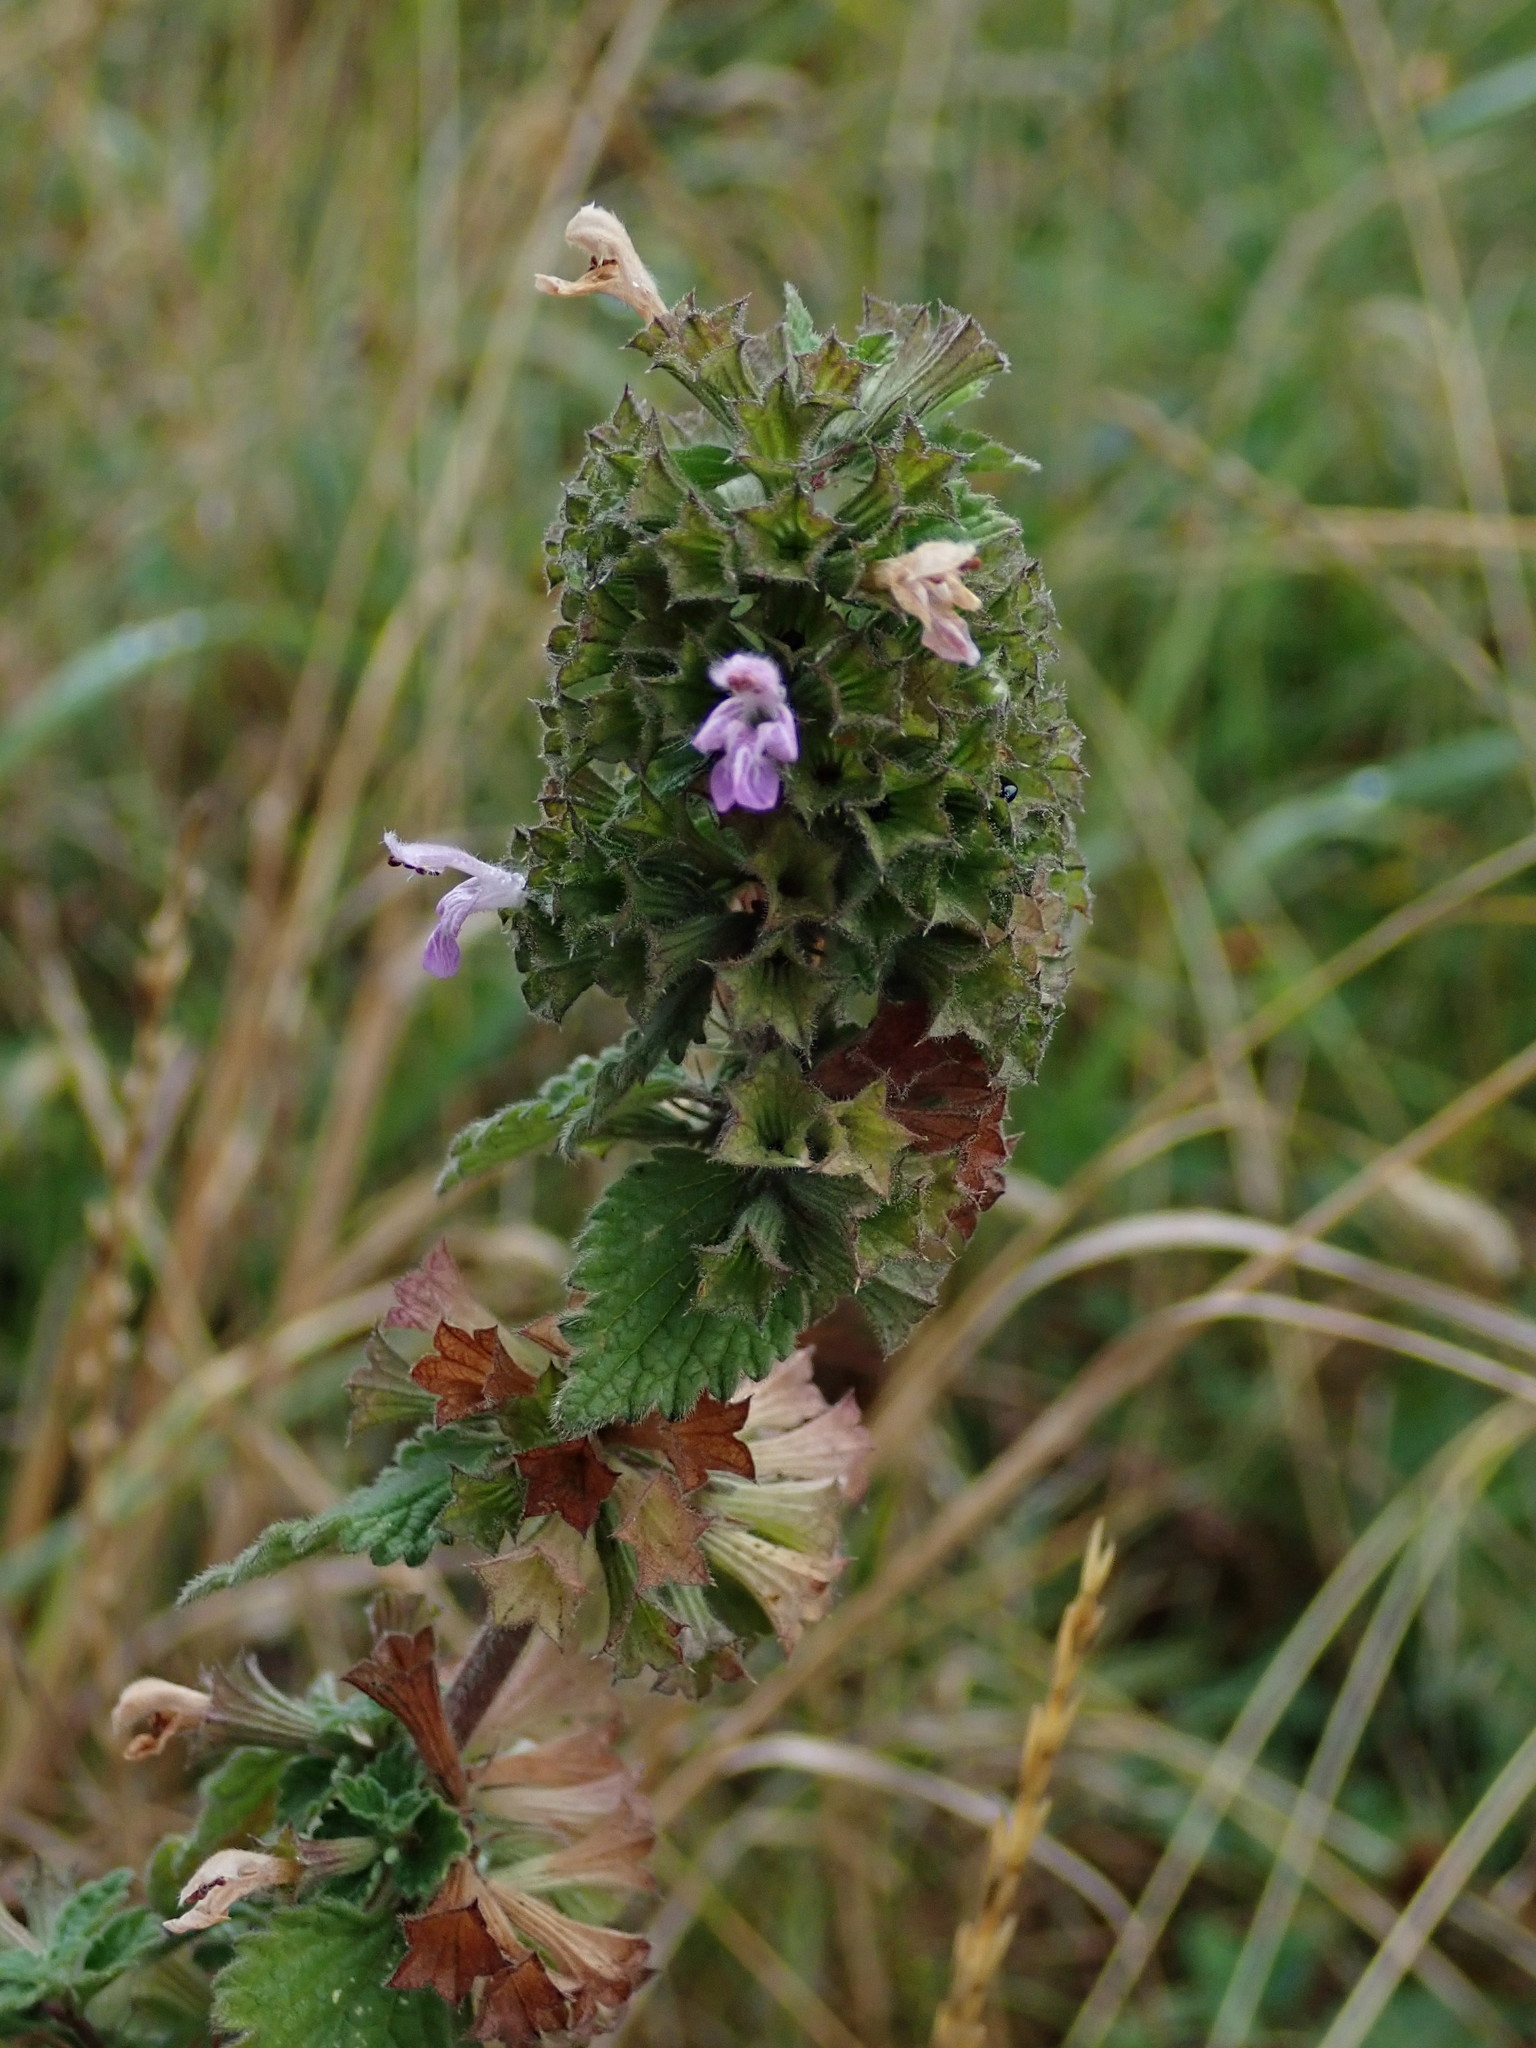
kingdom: Plantae
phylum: Tracheophyta
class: Magnoliopsida
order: Lamiales
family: Lamiaceae
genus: Ballota
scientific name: Ballota nigra
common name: Black horehound
